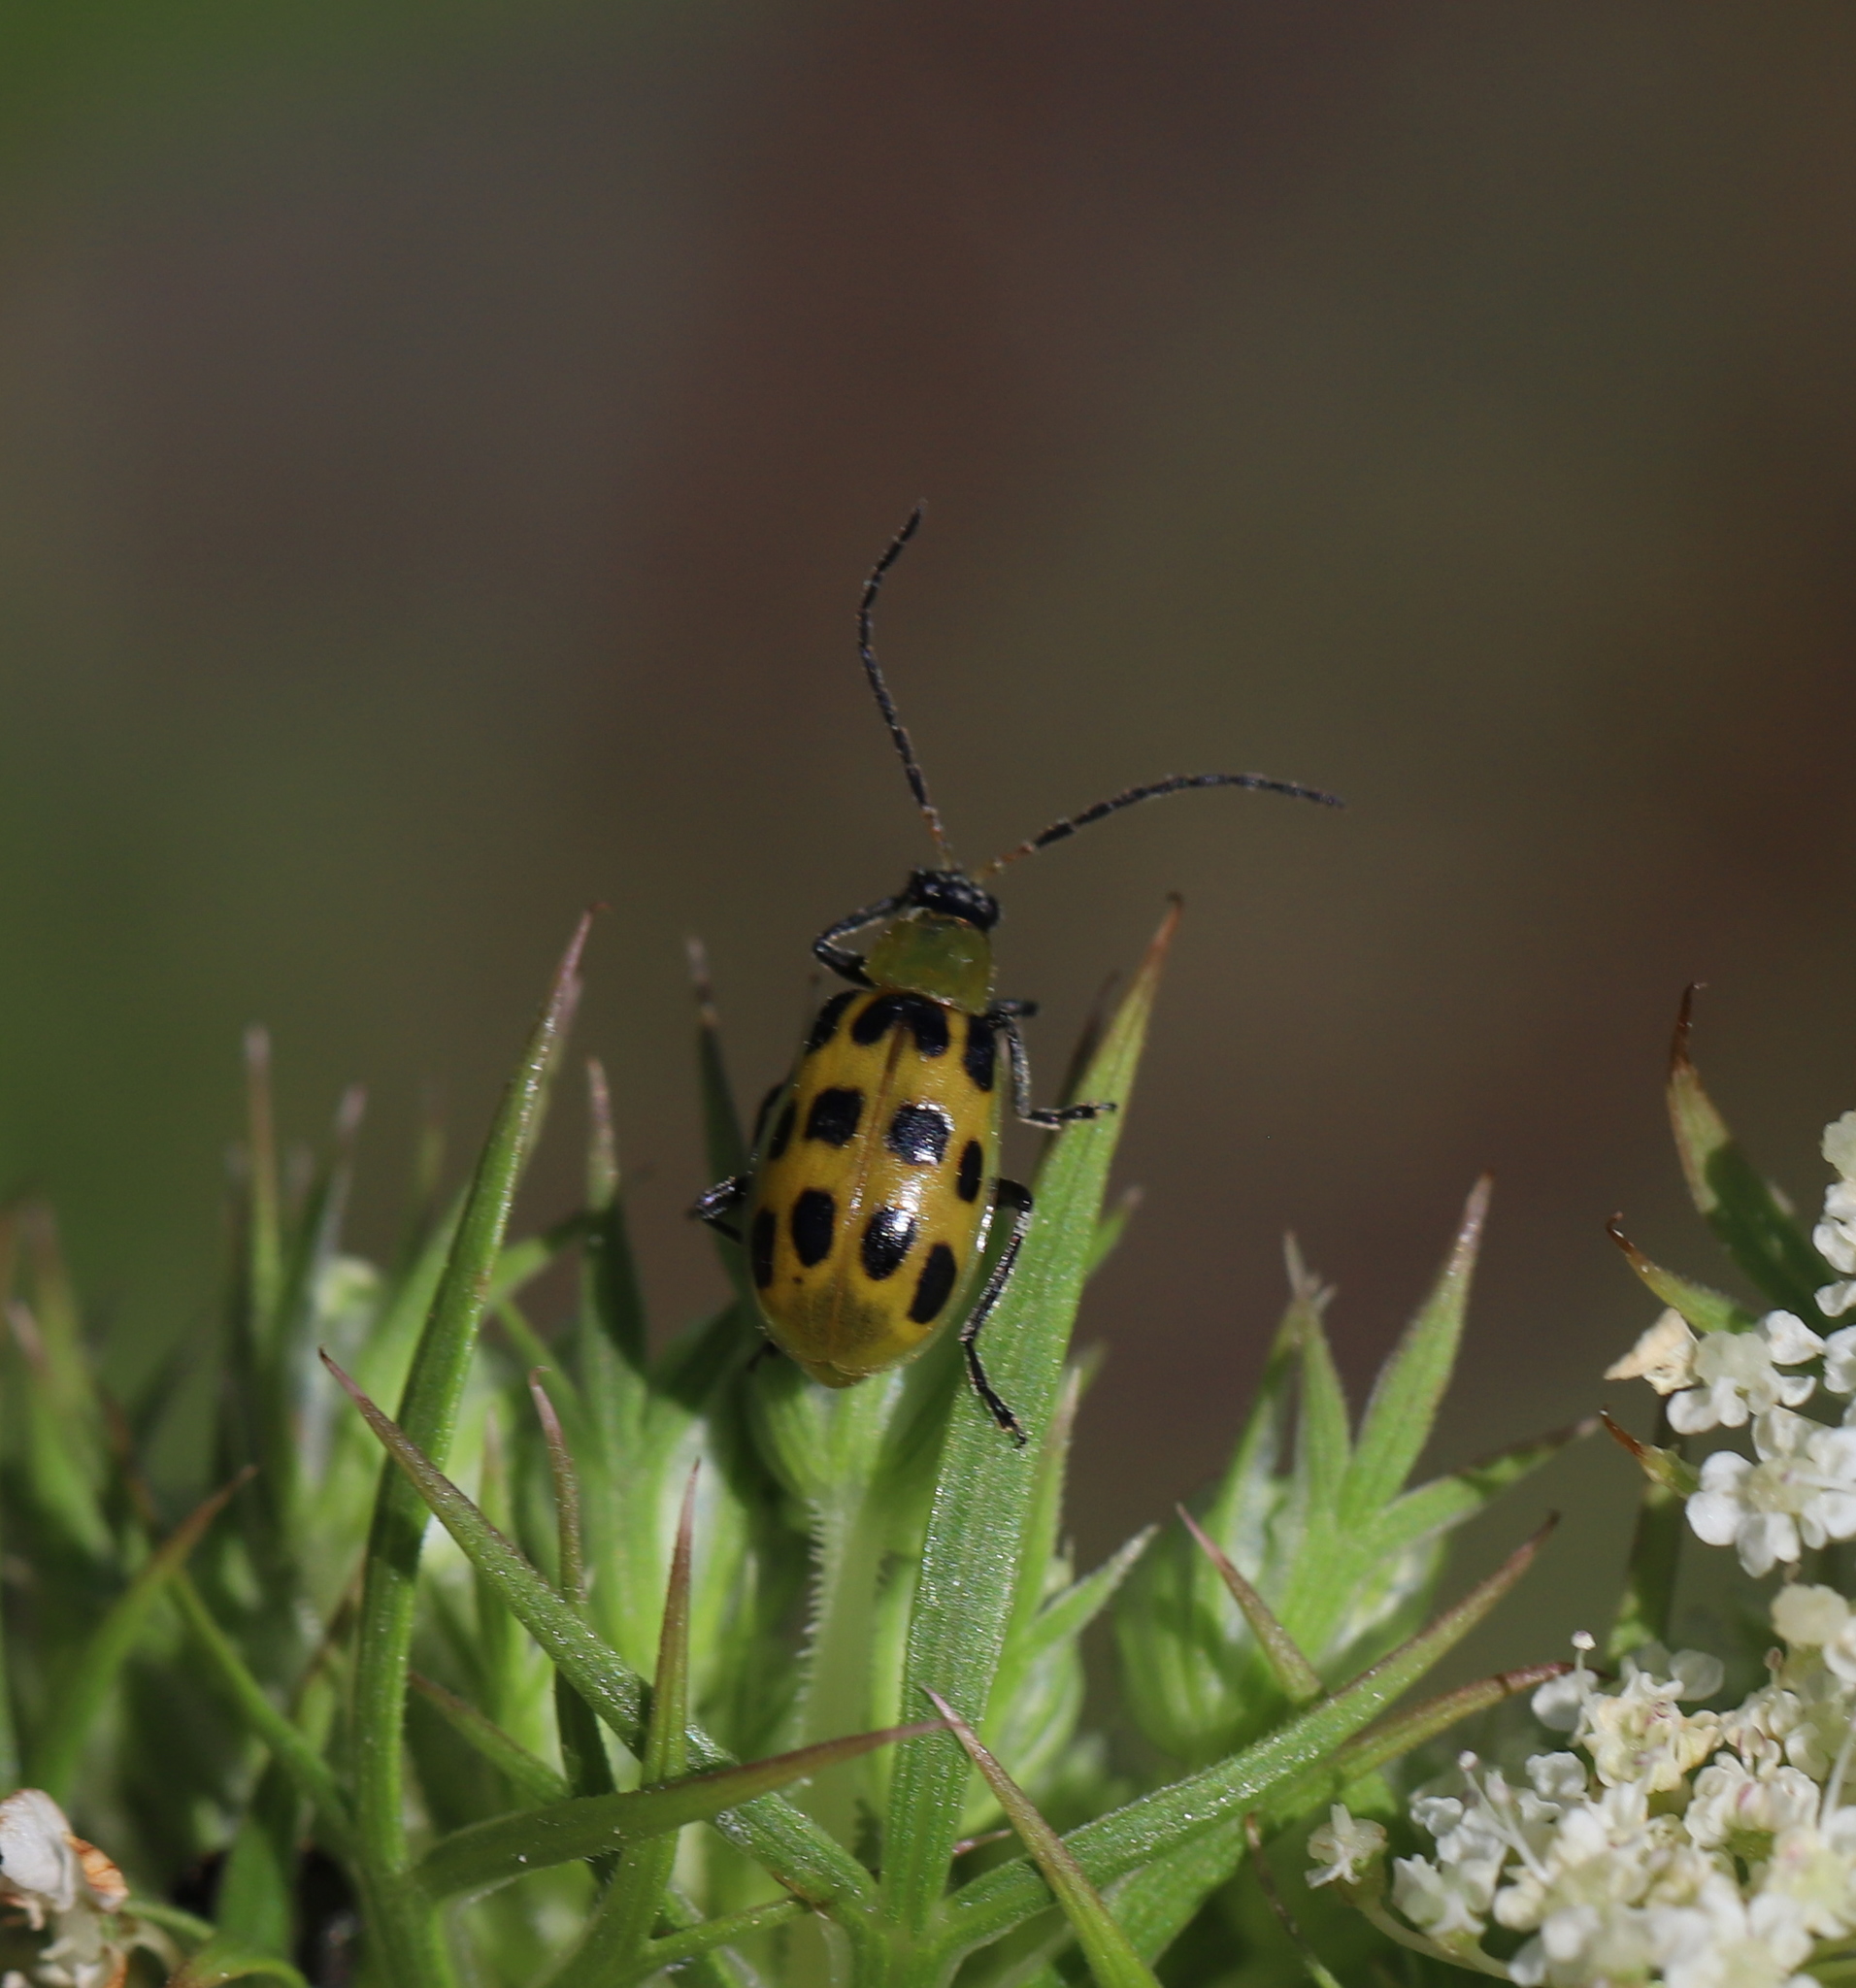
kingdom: Animalia
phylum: Arthropoda
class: Insecta
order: Coleoptera
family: Chrysomelidae
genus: Diabrotica
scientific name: Diabrotica undecimpunctata
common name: Spotted cucumber beetle
